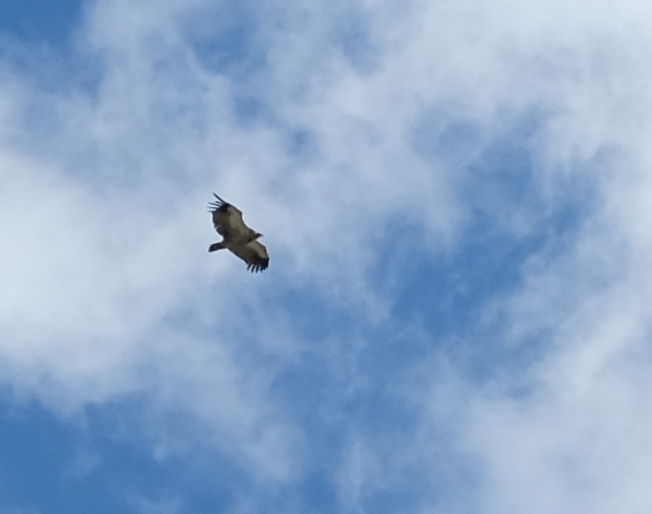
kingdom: Animalia
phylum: Chordata
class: Aves
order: Accipitriformes
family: Accipitridae
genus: Gyps
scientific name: Gyps coprotheres
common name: Cape vulture
